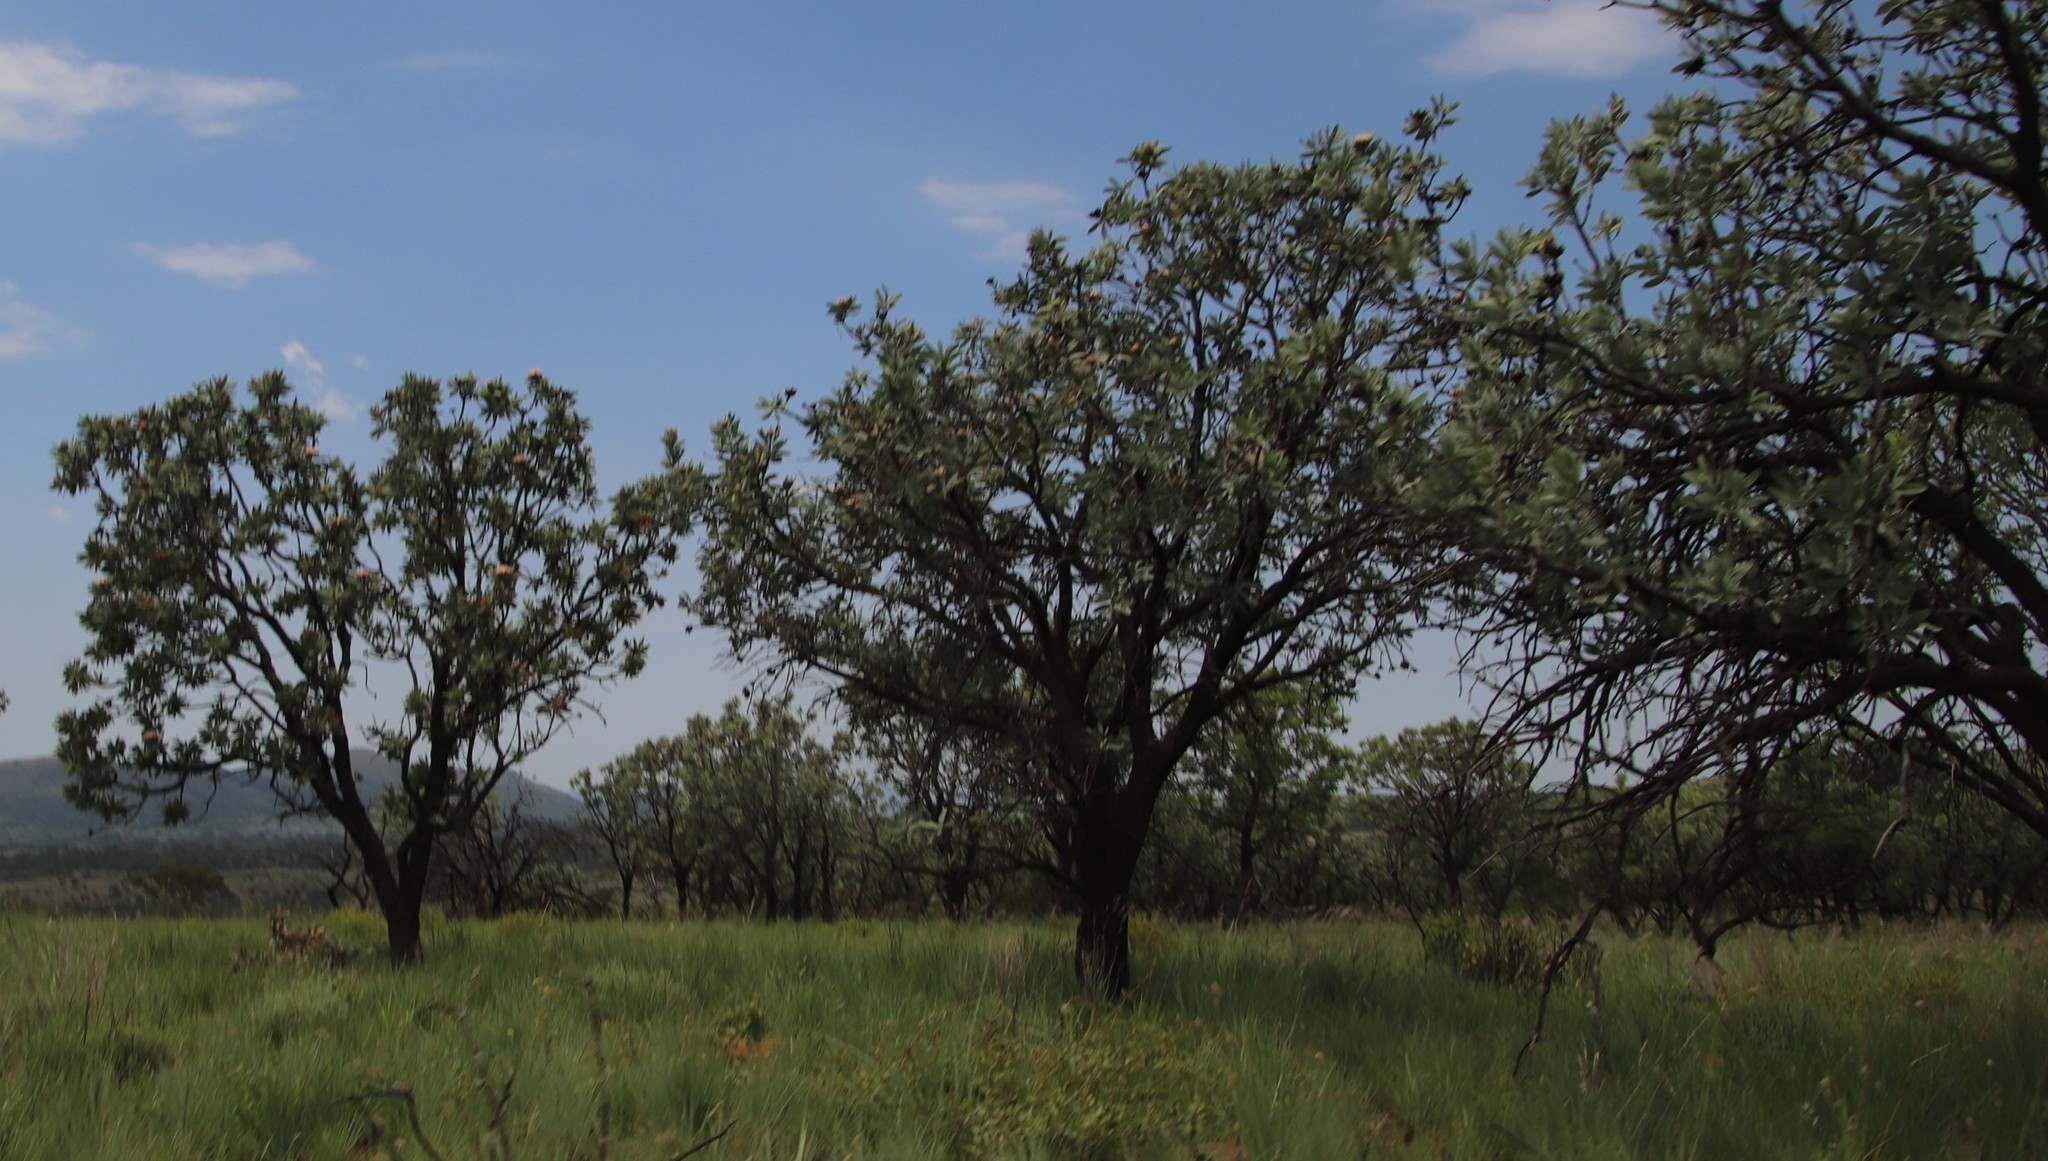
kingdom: Plantae
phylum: Tracheophyta
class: Magnoliopsida
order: Proteales
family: Proteaceae
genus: Protea
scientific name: Protea caffra
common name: Common sugarbush
